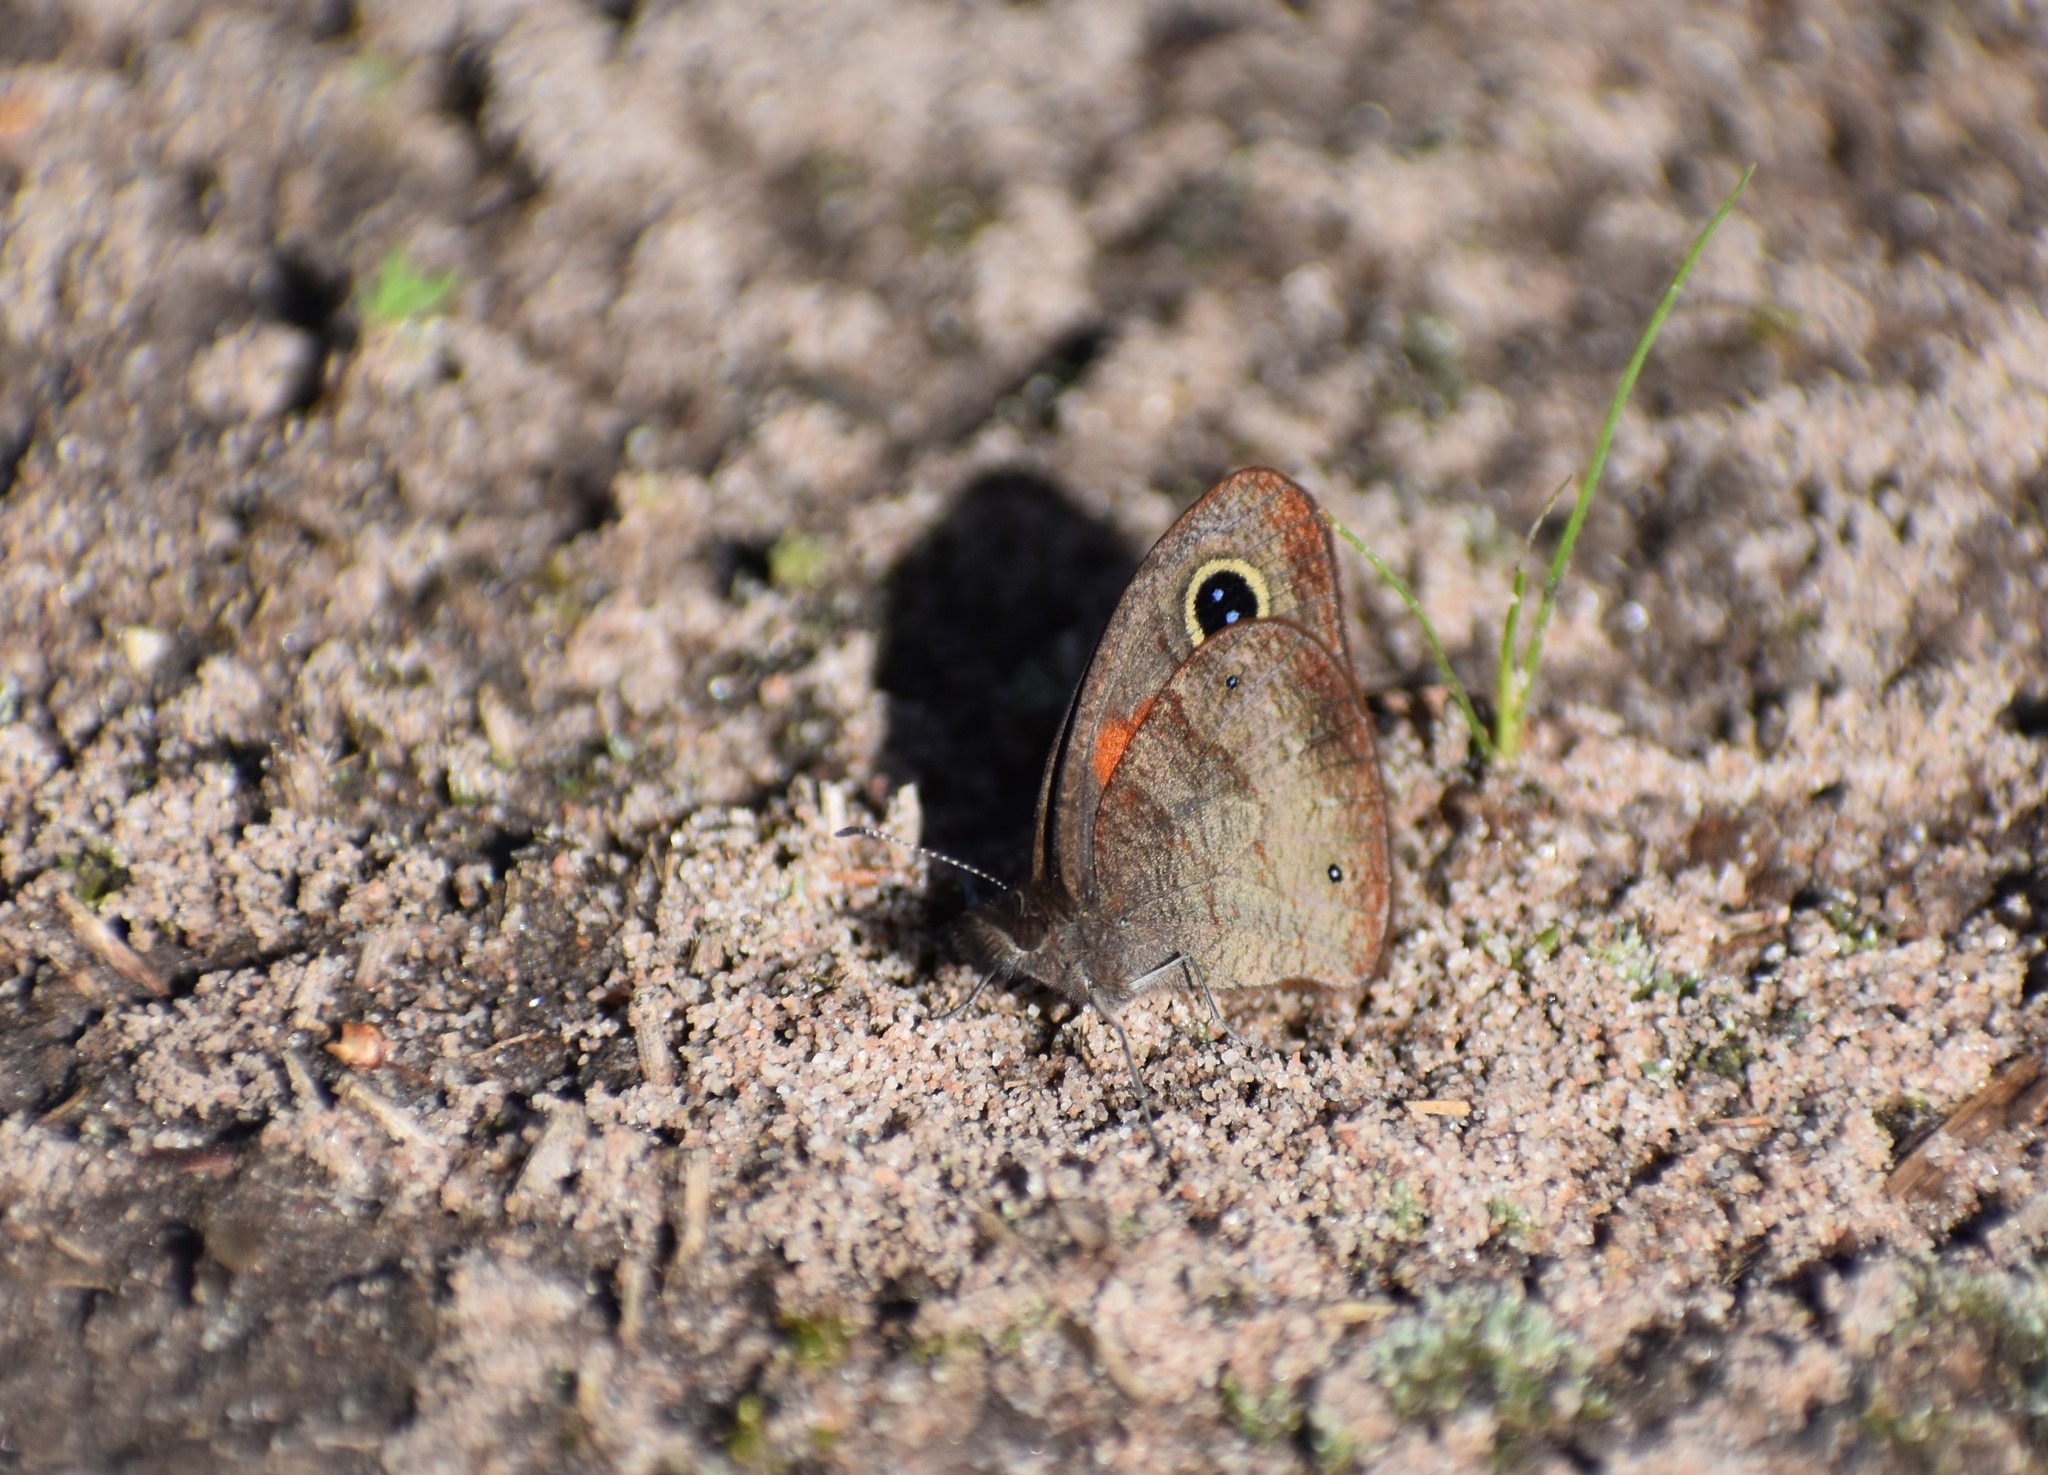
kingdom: Animalia
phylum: Arthropoda
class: Insecta
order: Lepidoptera
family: Nymphalidae
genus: Cassionympha
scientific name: Cassionympha cassius
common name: Rainforest brown
